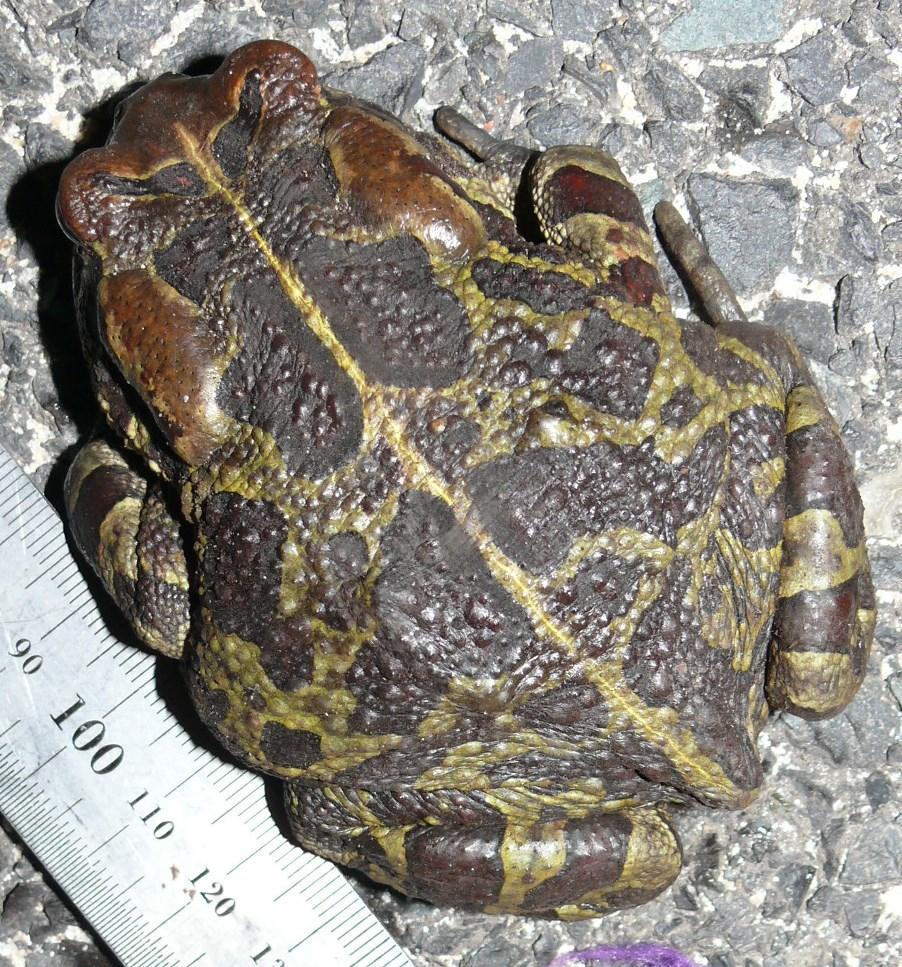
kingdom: Animalia
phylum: Chordata
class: Amphibia
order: Anura
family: Bufonidae
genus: Sclerophrys
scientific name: Sclerophrys pantherina
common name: Panther toad
